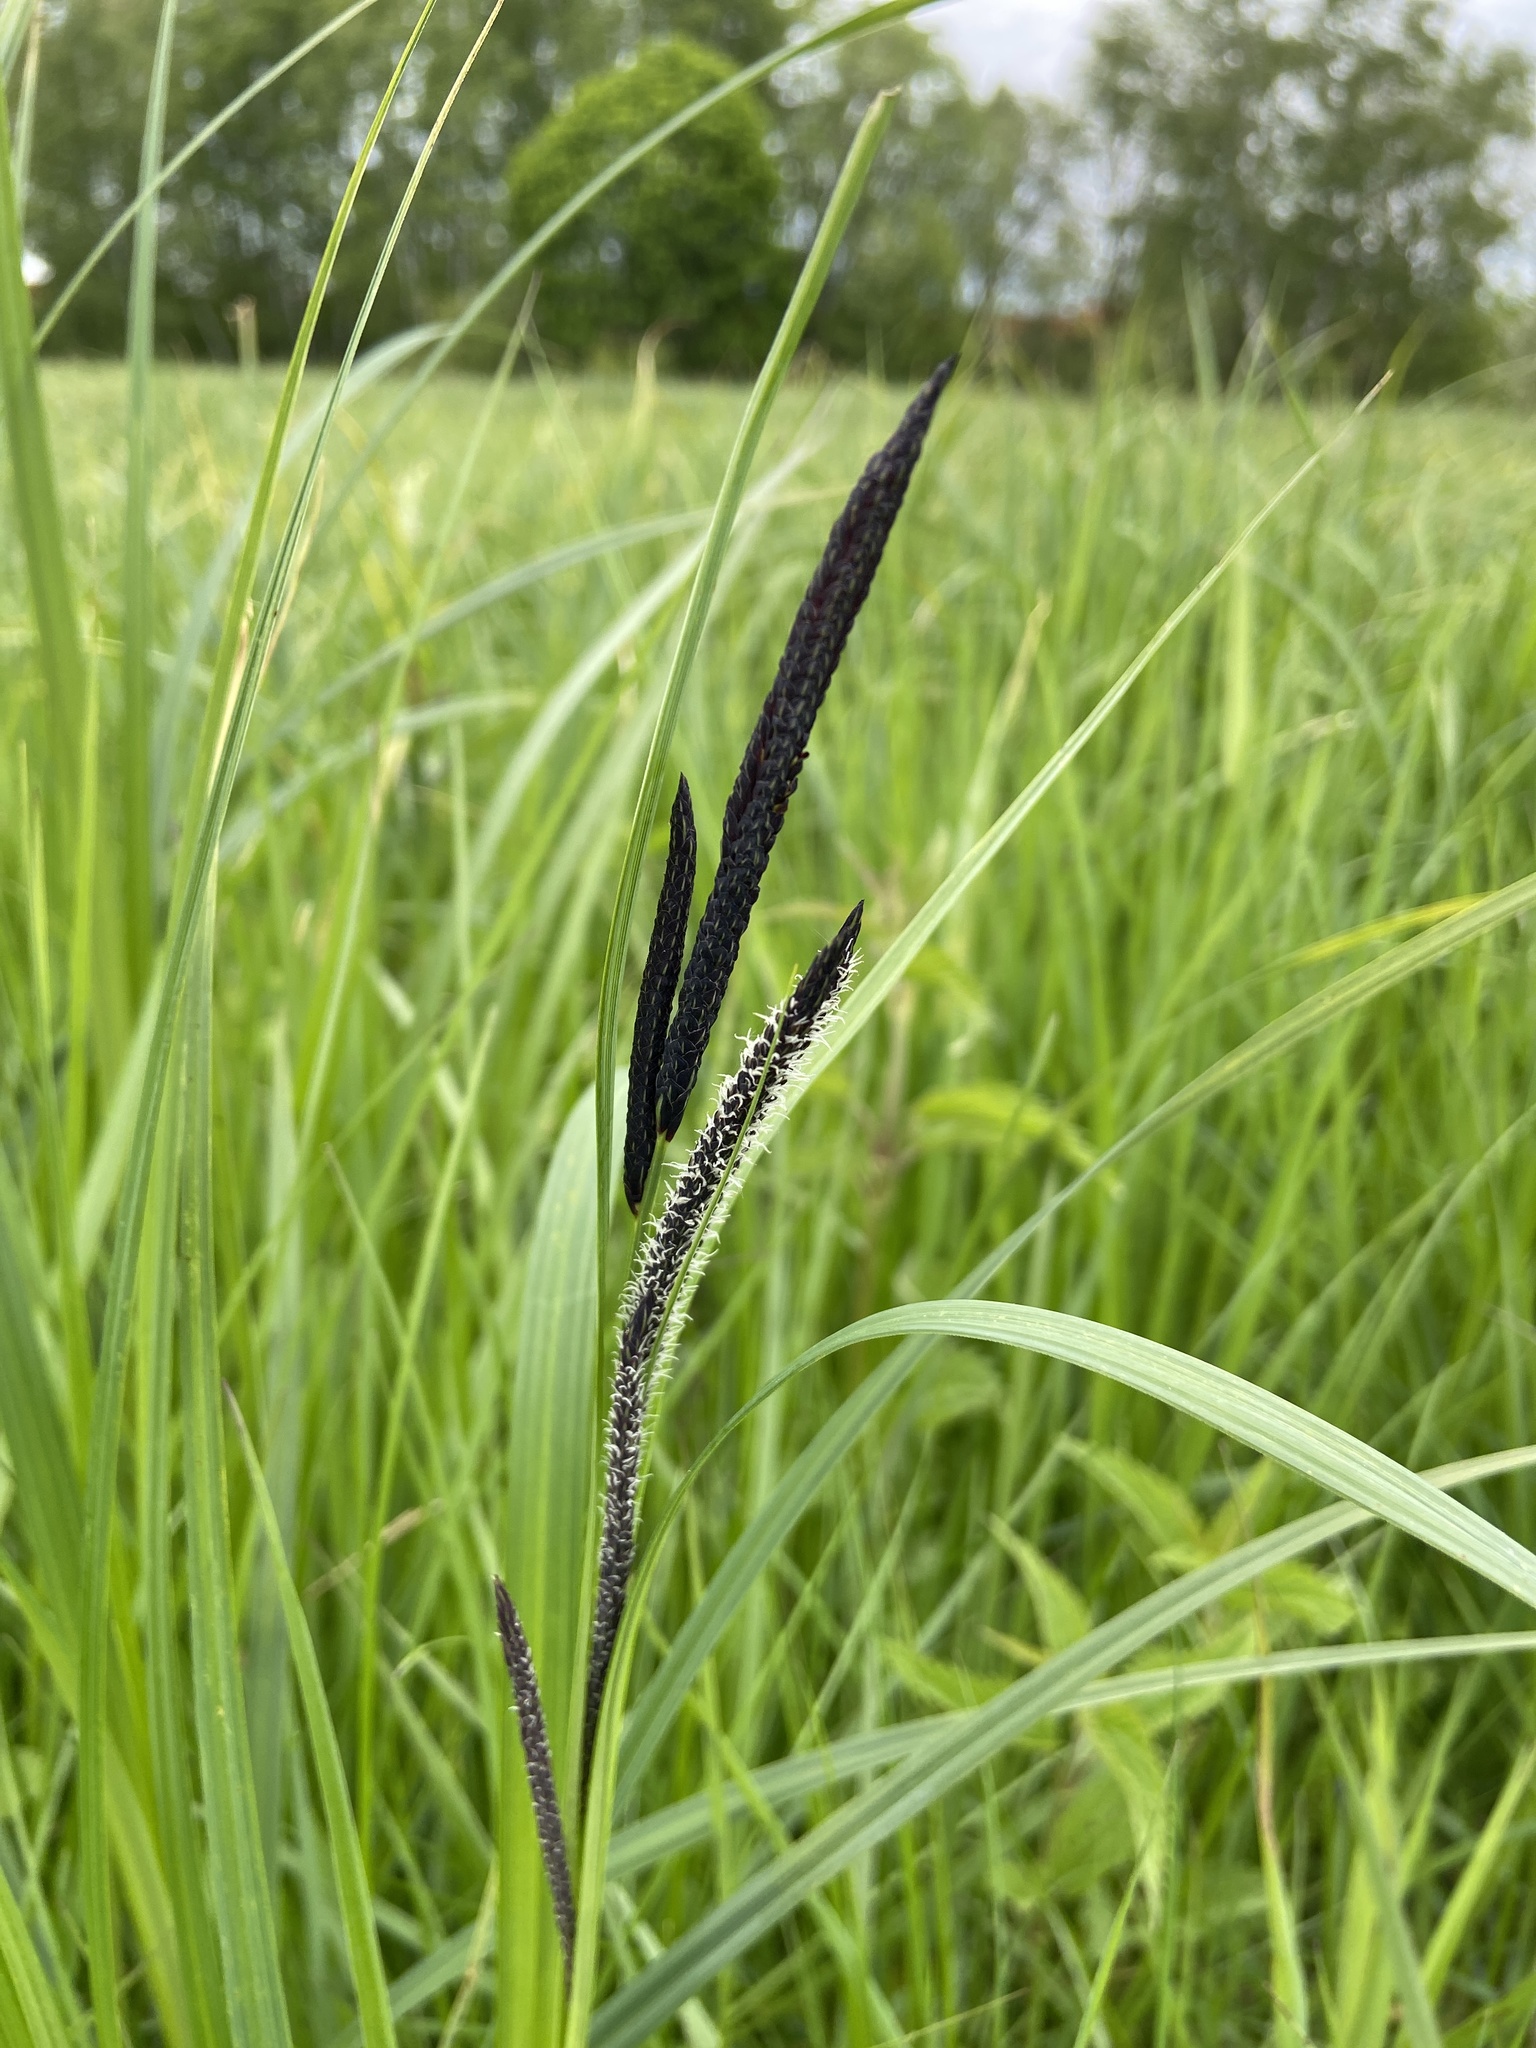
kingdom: Plantae
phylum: Tracheophyta
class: Liliopsida
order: Poales
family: Cyperaceae
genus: Carex
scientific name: Carex acuta
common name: Slender tufted-sedge
